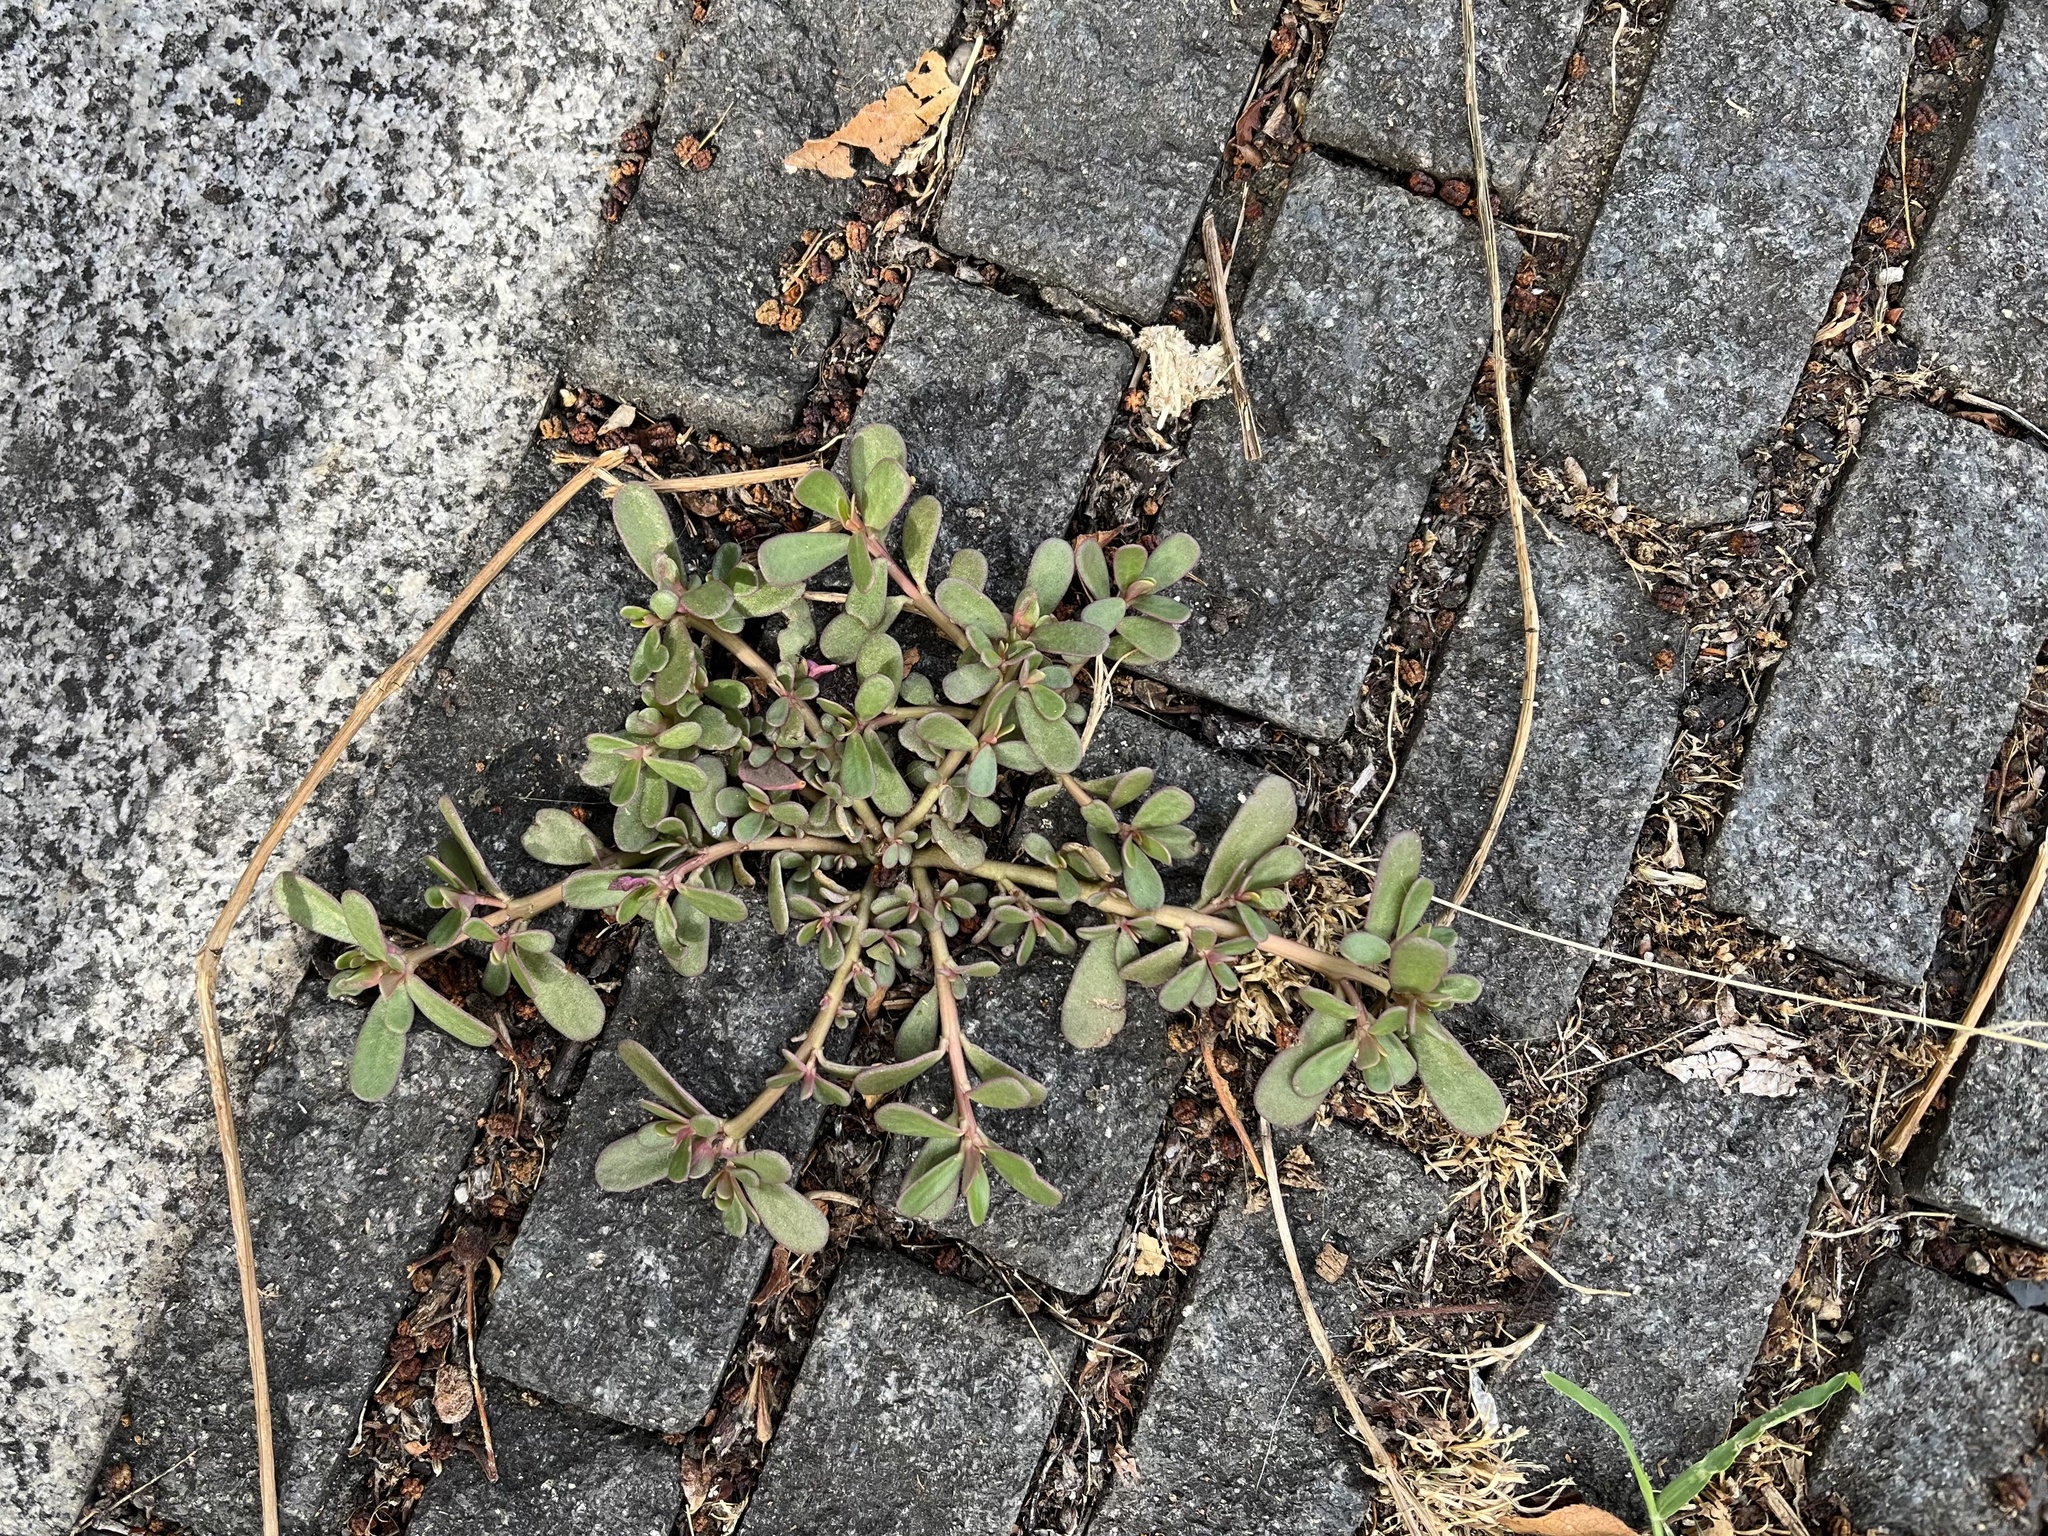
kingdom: Plantae
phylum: Tracheophyta
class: Magnoliopsida
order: Caryophyllales
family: Portulacaceae
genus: Portulaca
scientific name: Portulaca oleracea
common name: Common purslane
